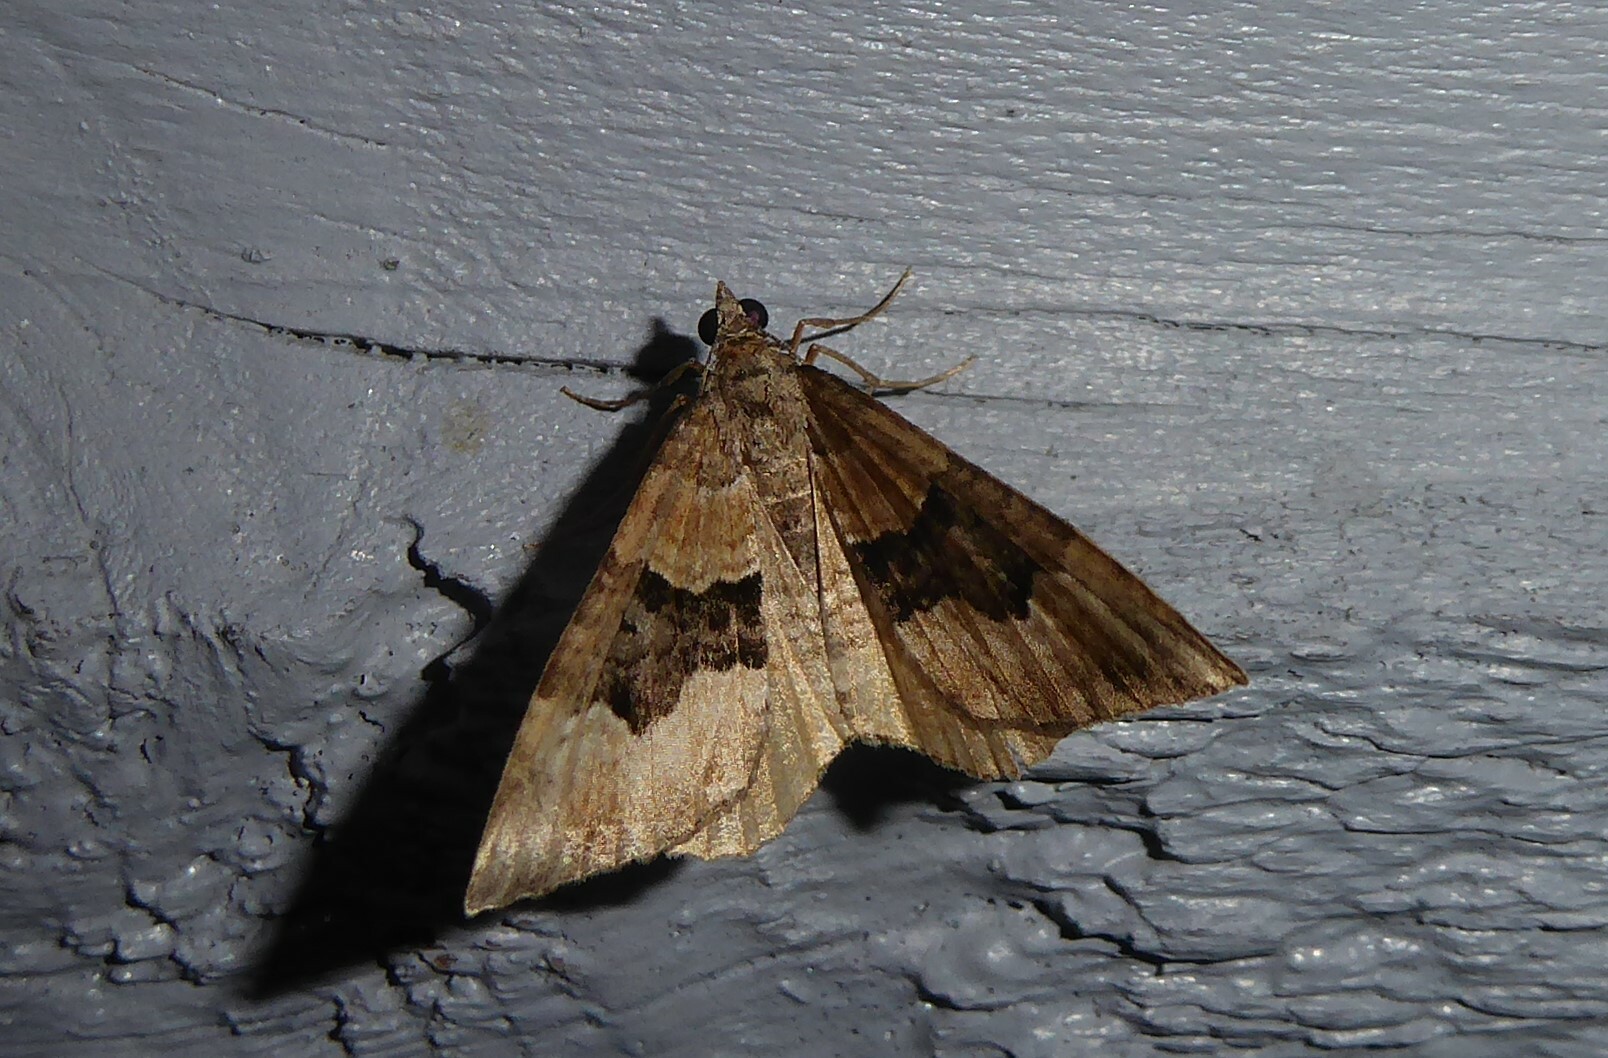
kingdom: Animalia
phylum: Arthropoda
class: Insecta
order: Lepidoptera
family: Geometridae
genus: Hydriomena
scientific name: Hydriomena deltoidata
